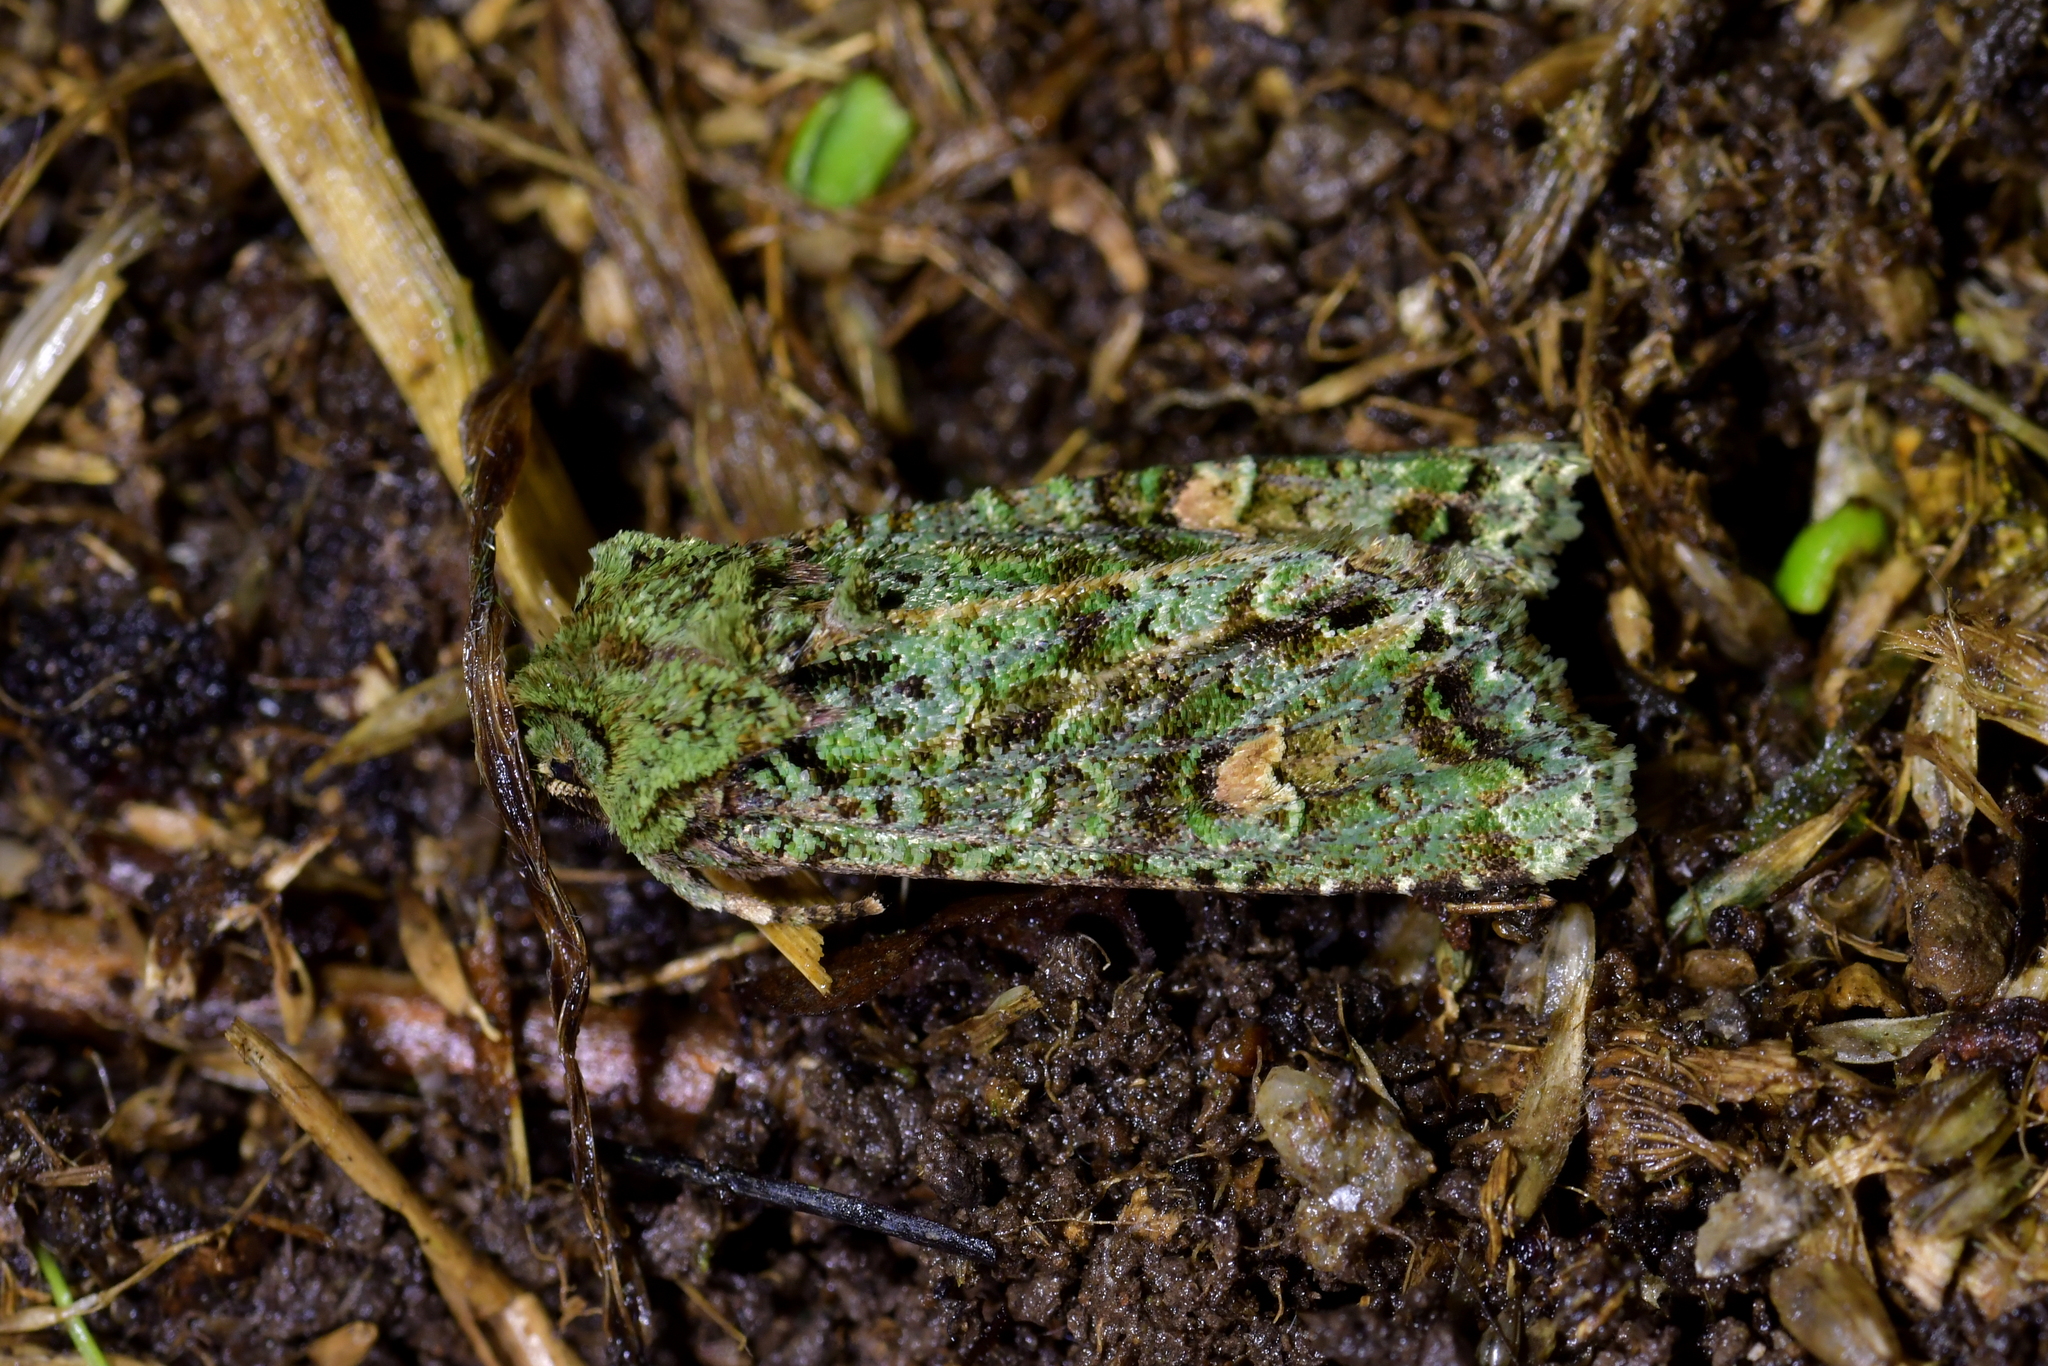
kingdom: Animalia
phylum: Arthropoda
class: Insecta
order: Lepidoptera
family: Noctuidae
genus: Ichneutica
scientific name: Ichneutica
